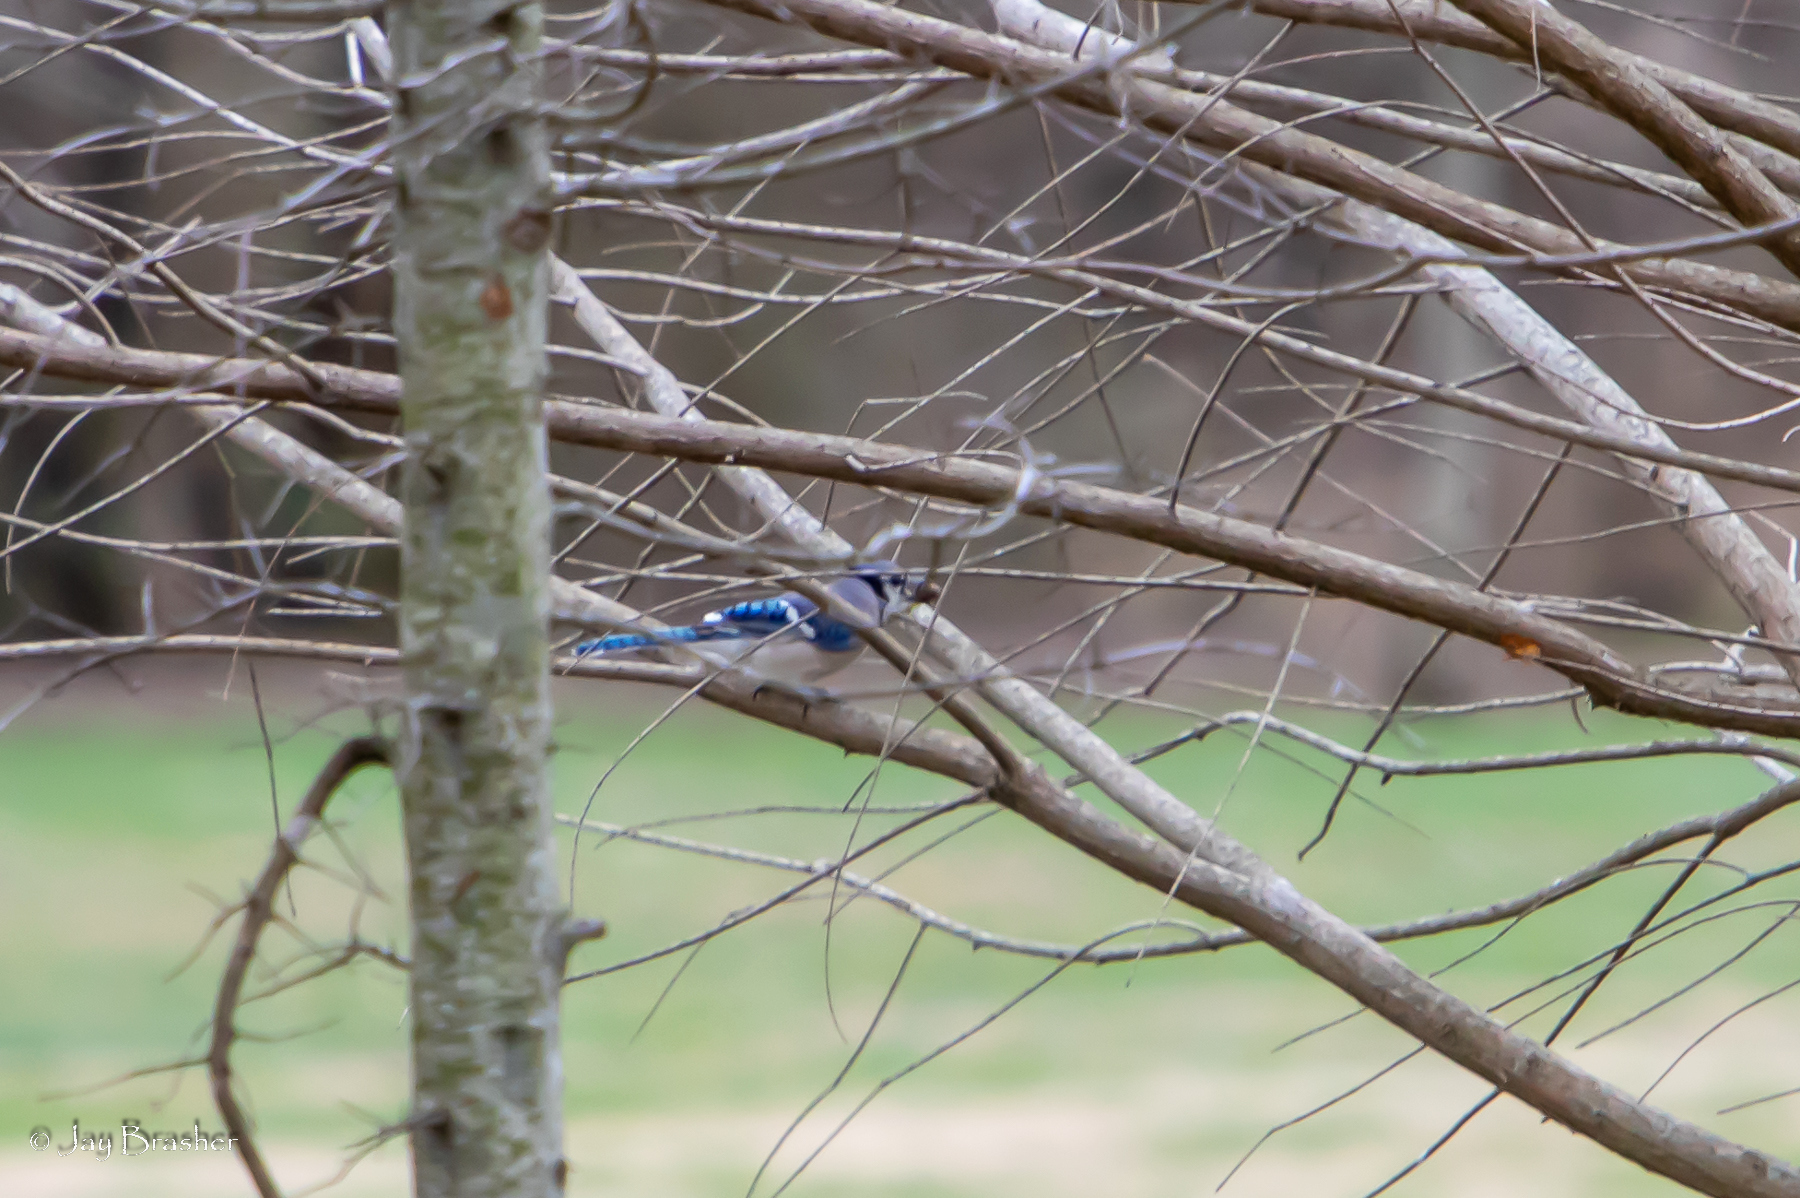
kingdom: Animalia
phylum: Chordata
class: Aves
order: Passeriformes
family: Corvidae
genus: Cyanocitta
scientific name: Cyanocitta cristata
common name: Blue jay
